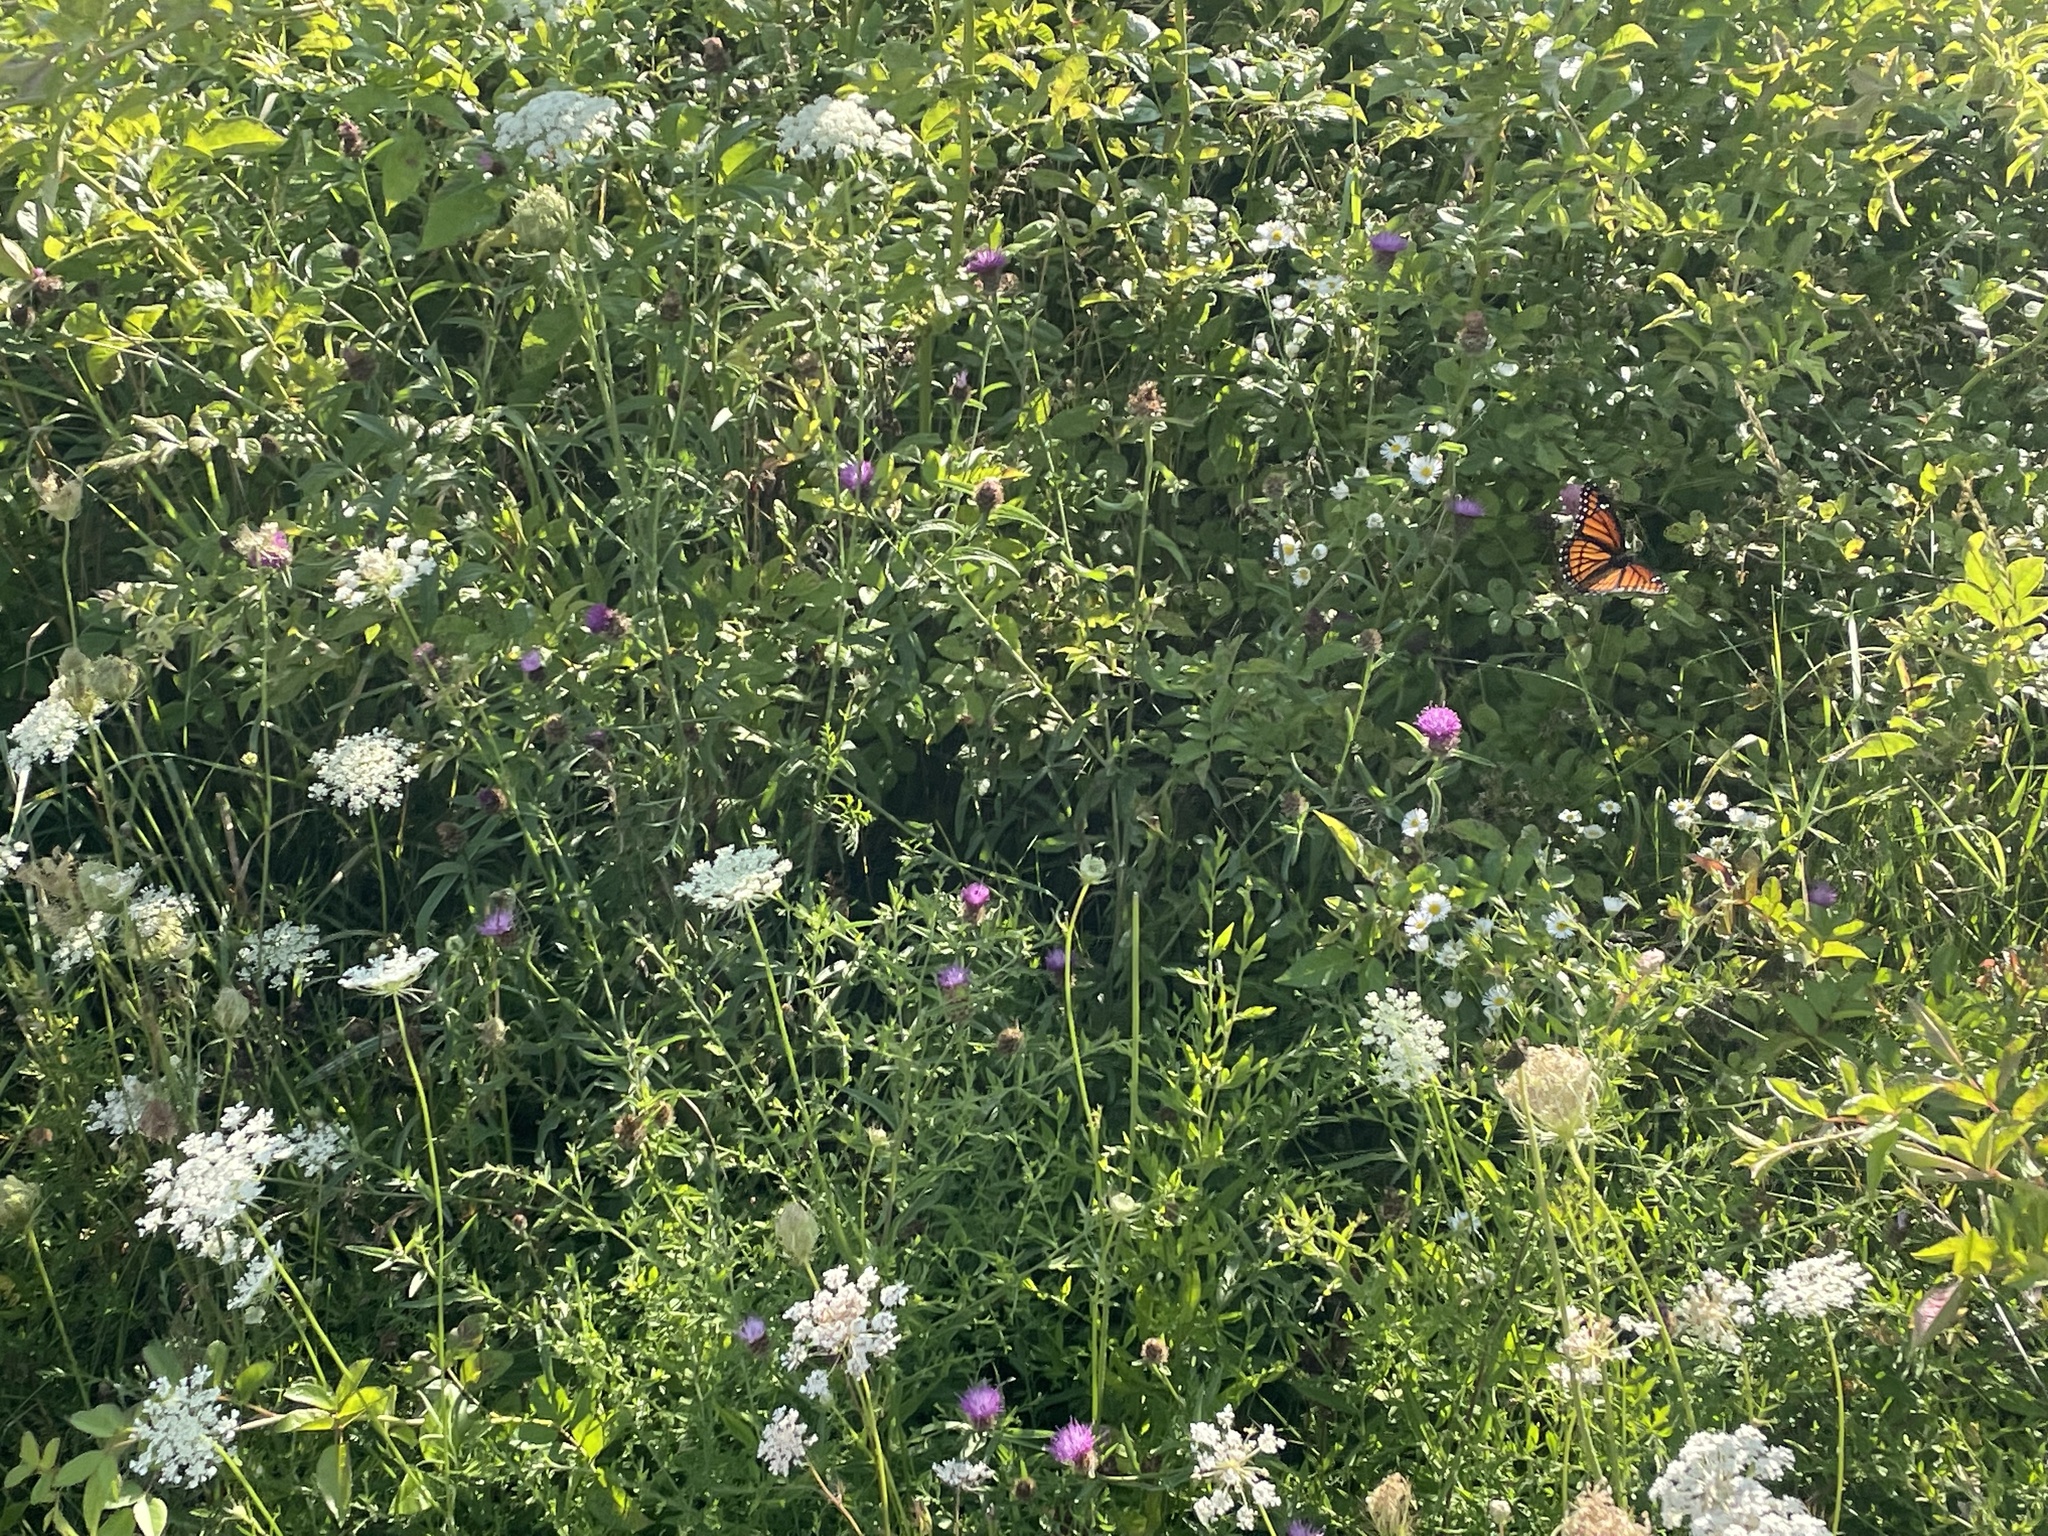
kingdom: Animalia
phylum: Arthropoda
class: Insecta
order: Lepidoptera
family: Nymphalidae
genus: Limenitis
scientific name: Limenitis archippus
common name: Viceroy
